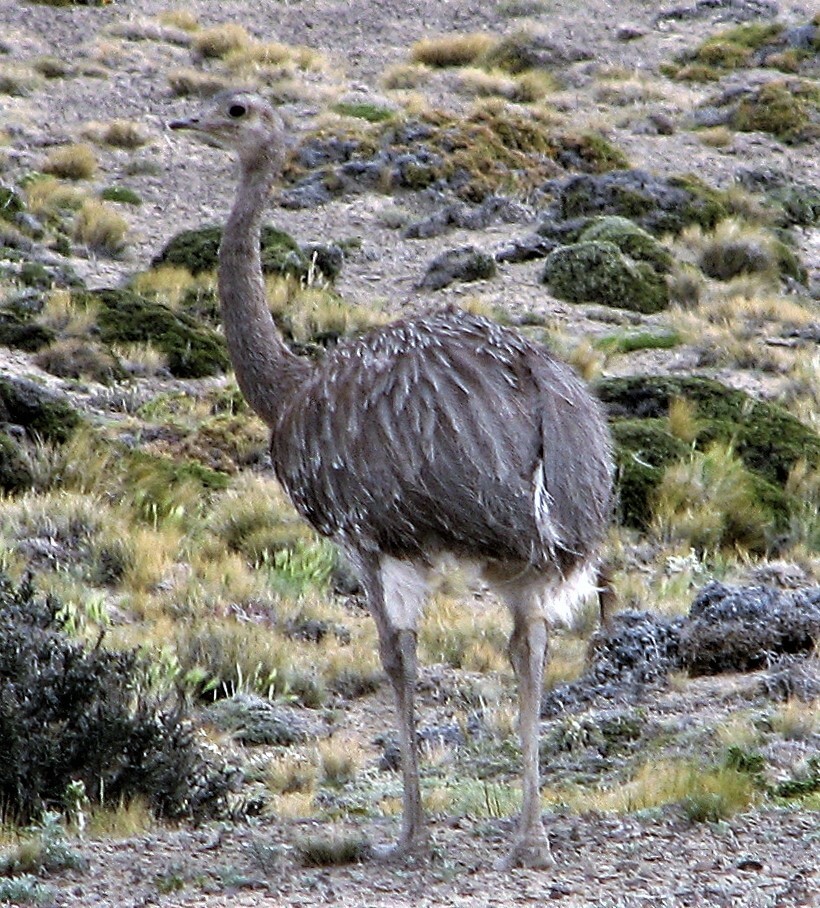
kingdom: Animalia
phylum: Chordata
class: Aves
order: Rheiformes
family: Rheidae
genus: Rhea
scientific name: Rhea pennata
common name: Lesser rhea
